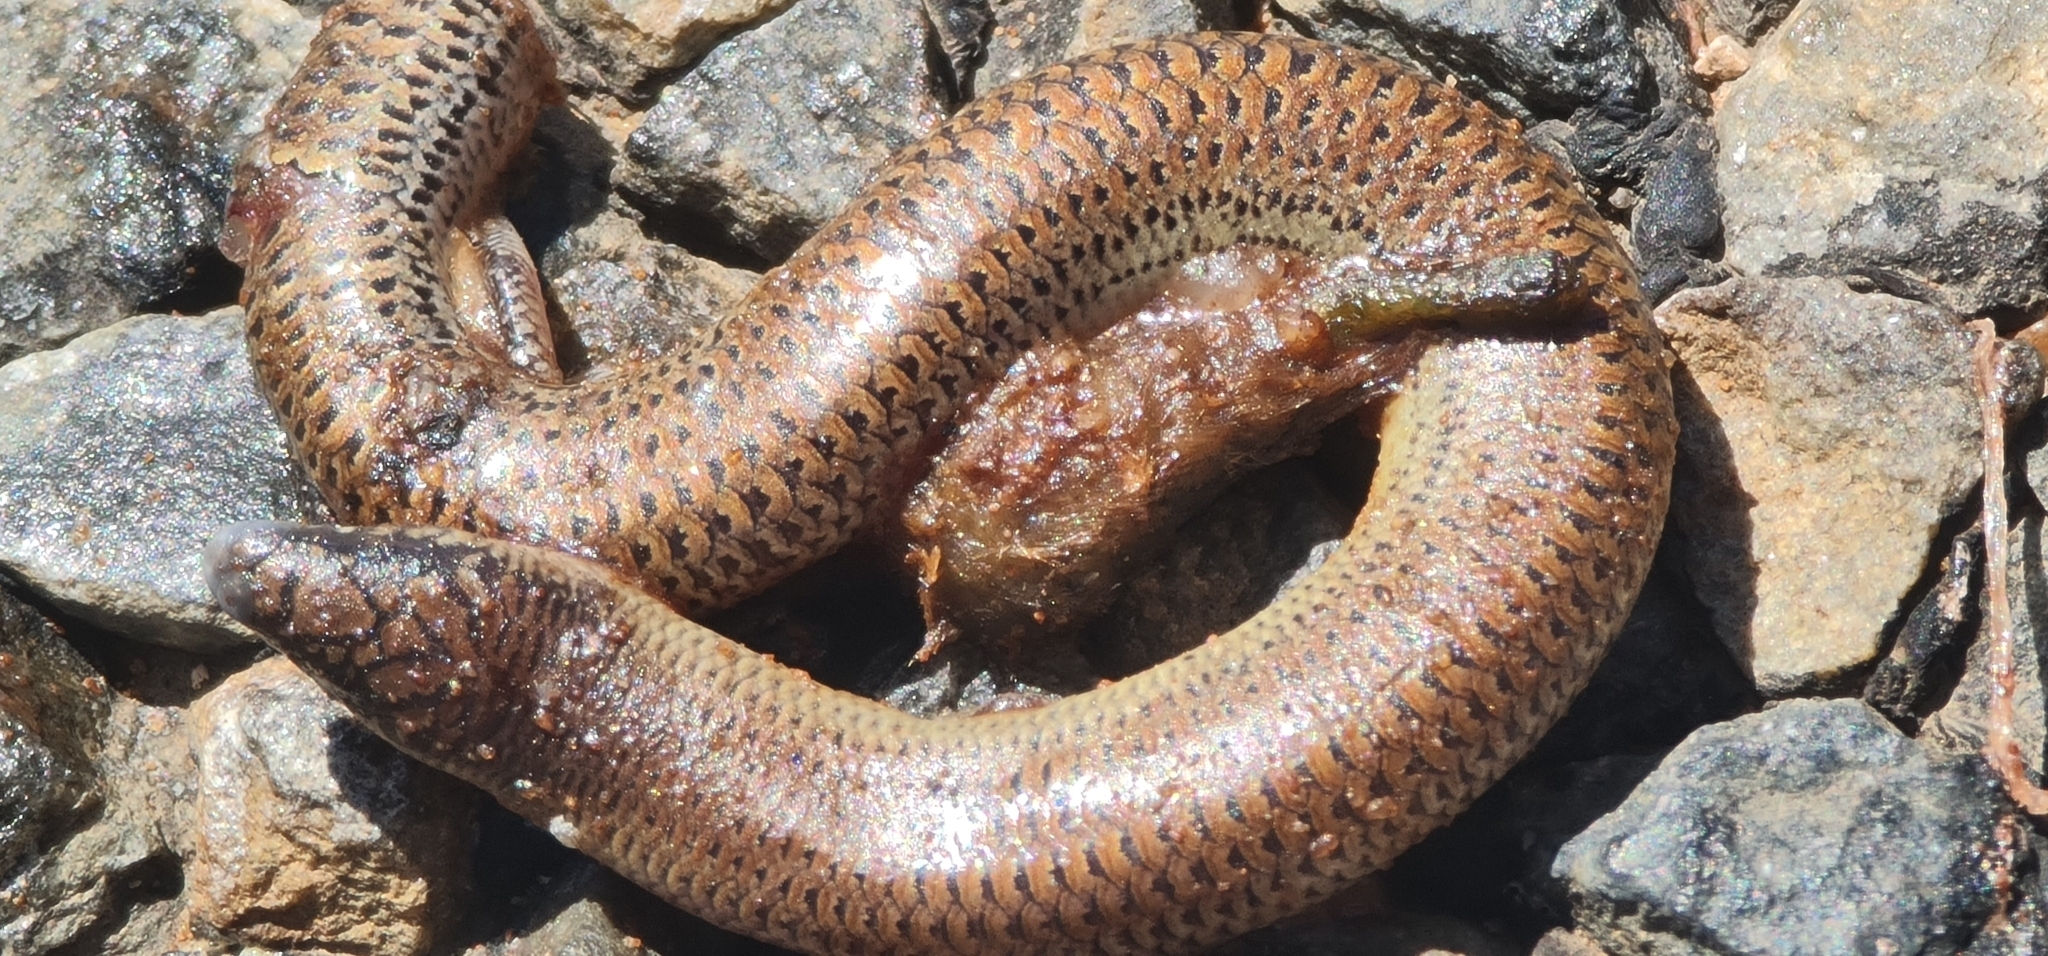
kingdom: Animalia
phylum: Chordata
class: Squamata
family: Scincidae
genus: Lerista
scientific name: Lerista punctatovittata
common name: Eastern robust slider
